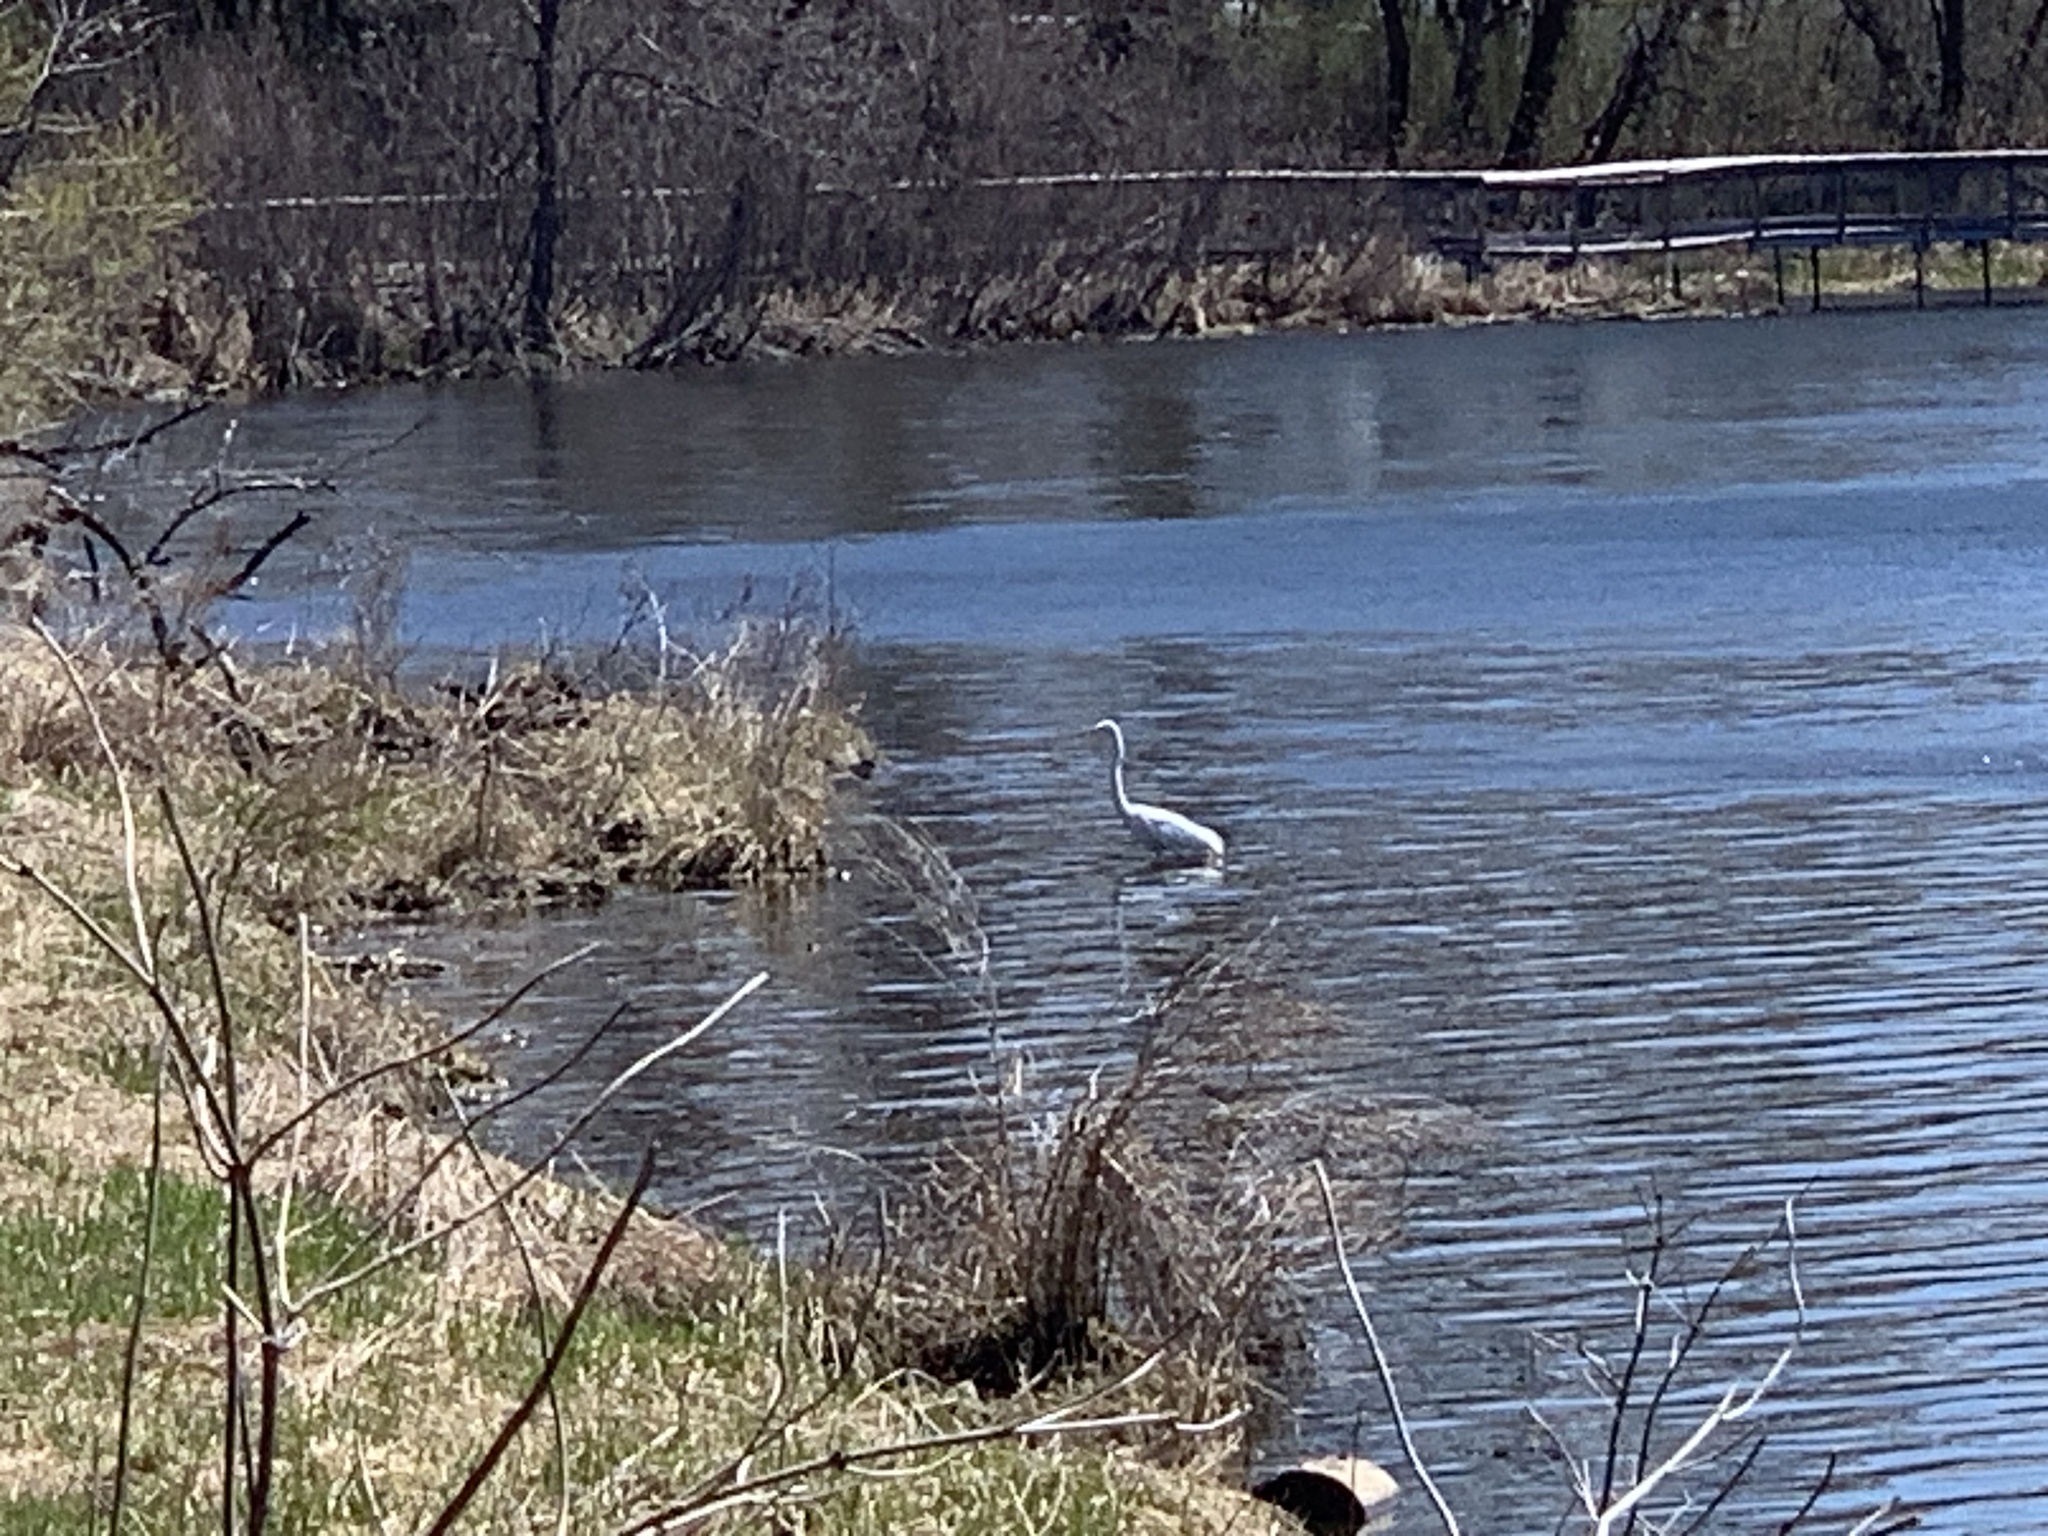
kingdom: Animalia
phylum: Chordata
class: Aves
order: Pelecaniformes
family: Ardeidae
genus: Ardea
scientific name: Ardea alba
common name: Great egret
